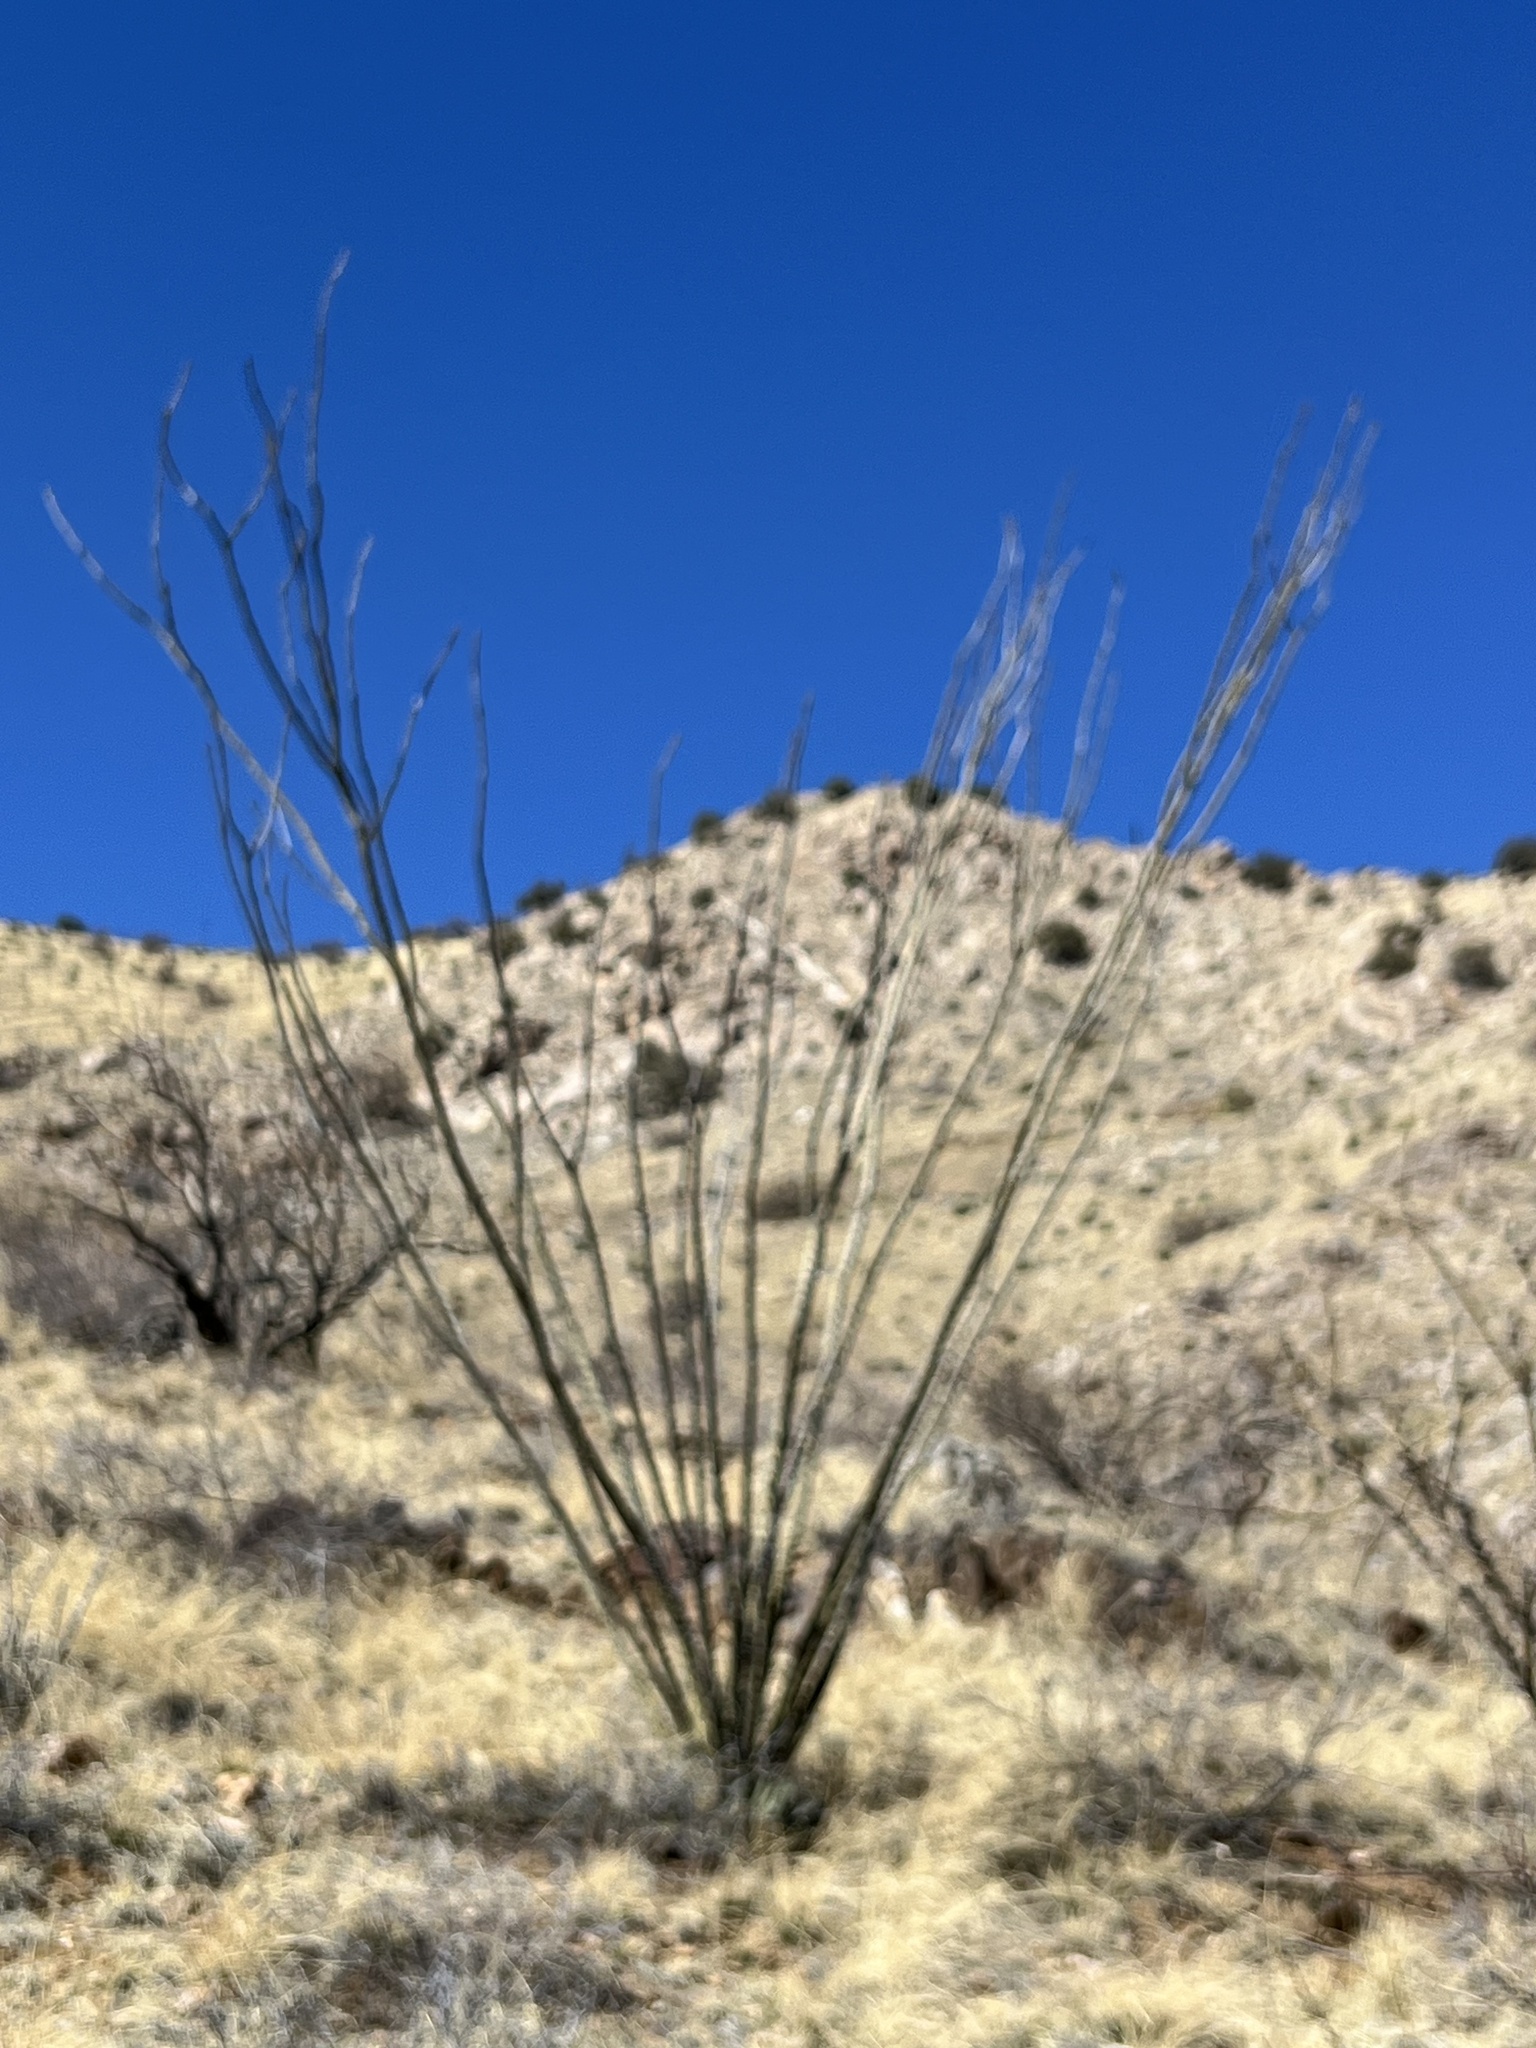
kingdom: Plantae
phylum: Tracheophyta
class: Magnoliopsida
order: Ericales
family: Fouquieriaceae
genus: Fouquieria
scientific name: Fouquieria splendens
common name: Vine-cactus
